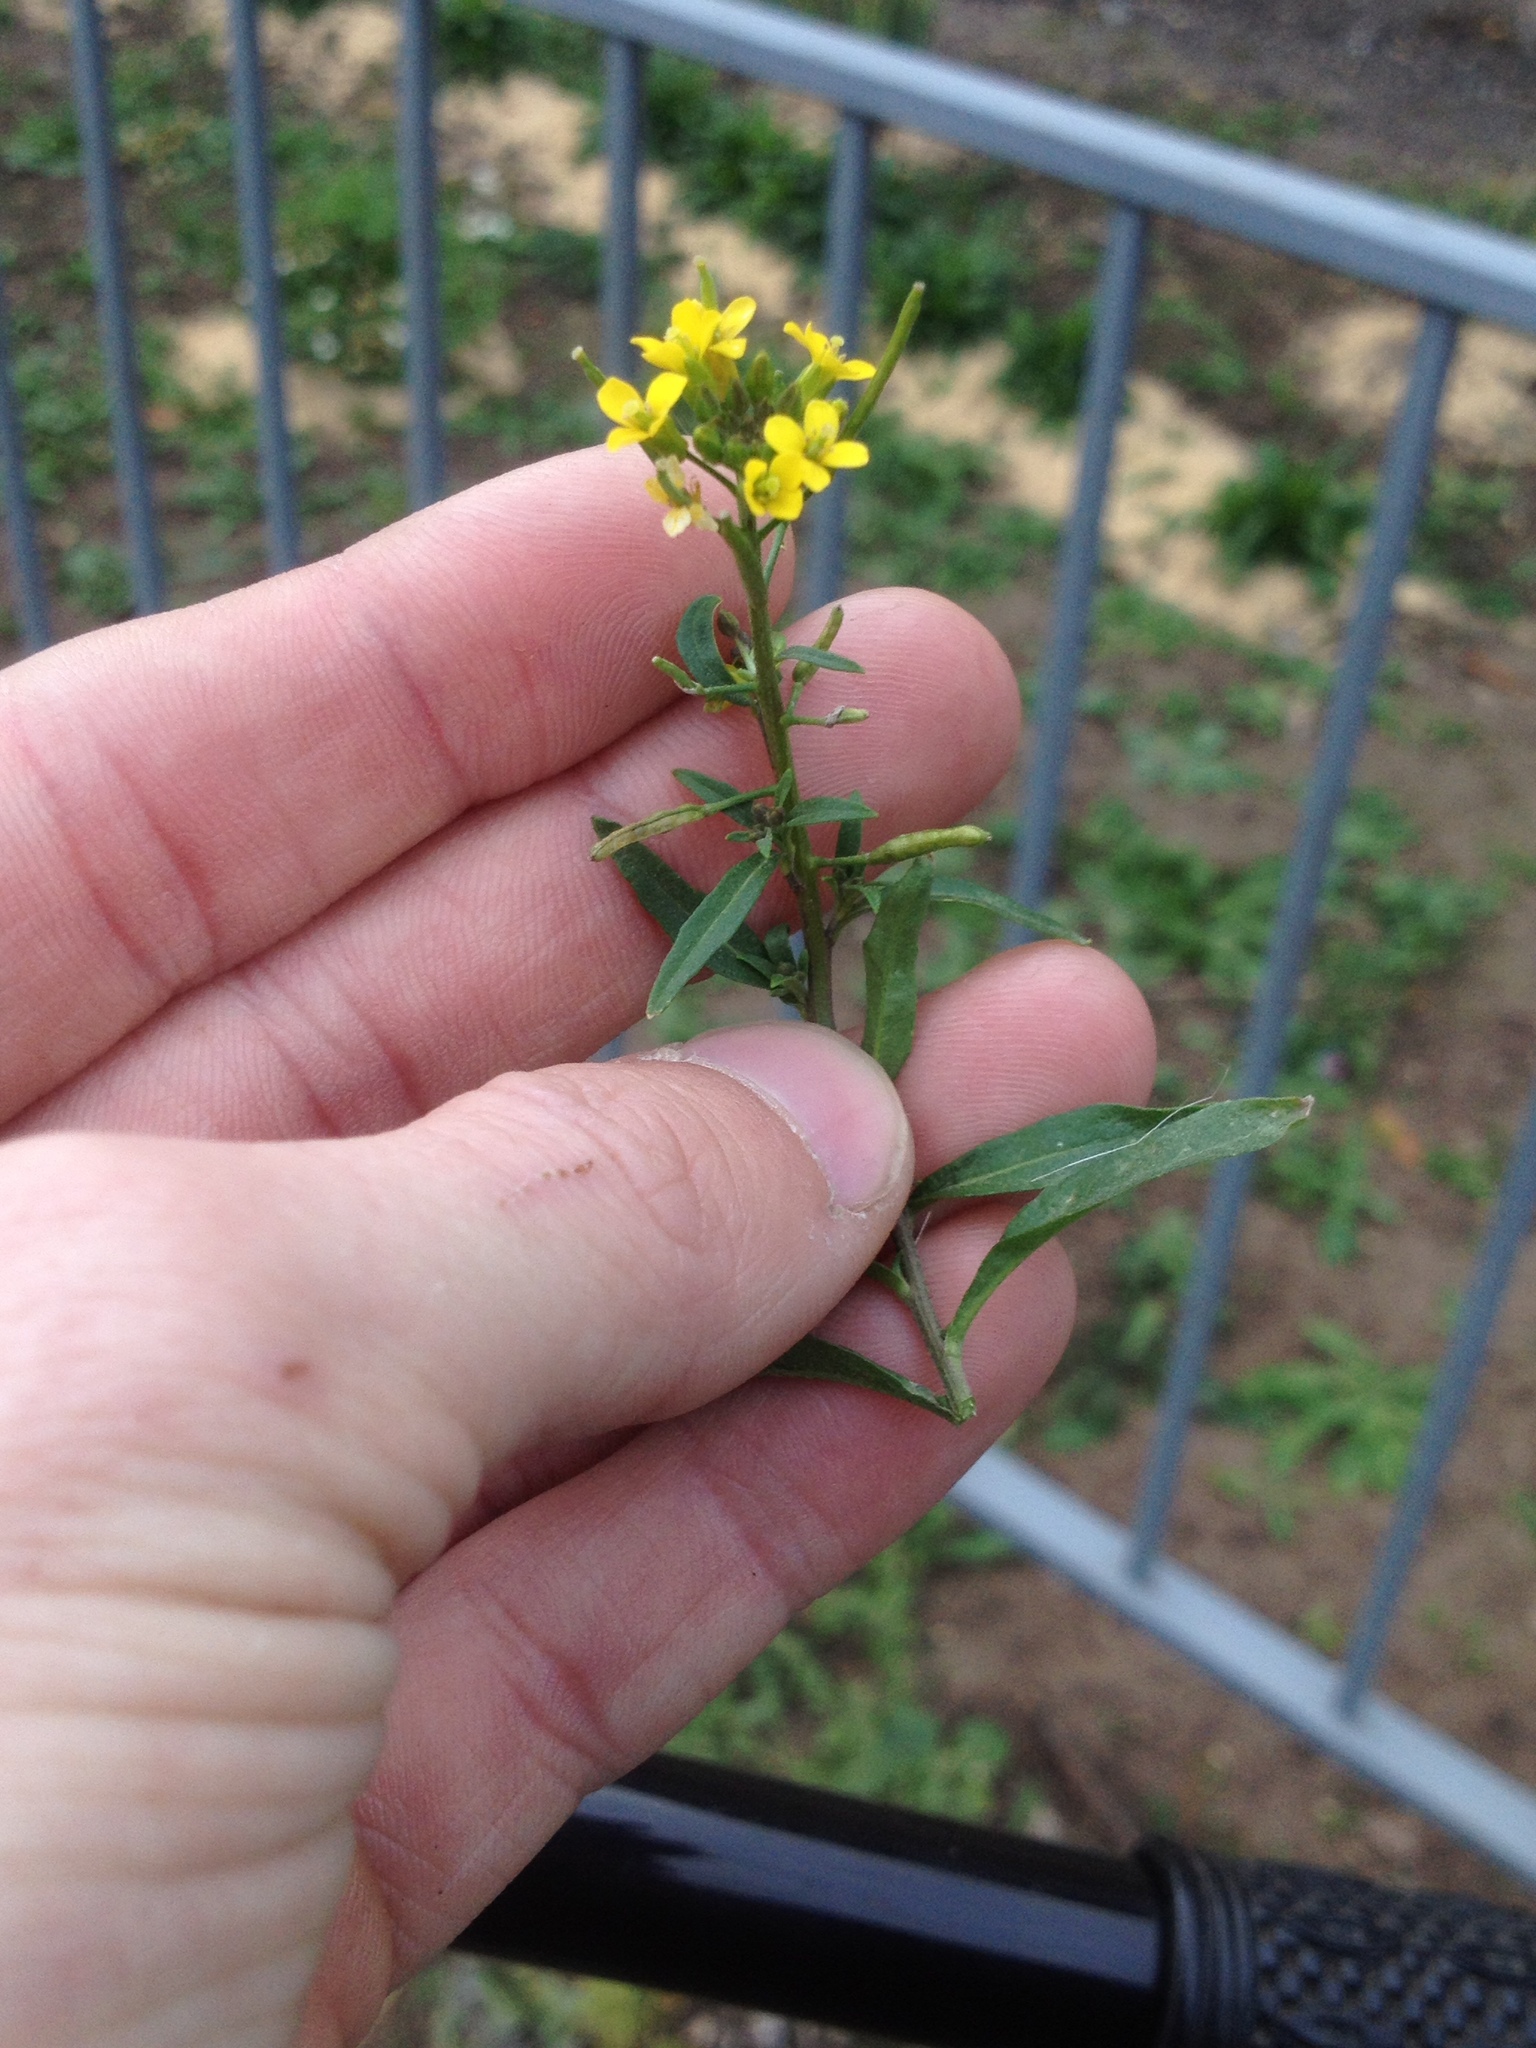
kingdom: Plantae
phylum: Tracheophyta
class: Magnoliopsida
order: Brassicales
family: Brassicaceae
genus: Erysimum
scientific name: Erysimum cheiranthoides
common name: Treacle mustard
